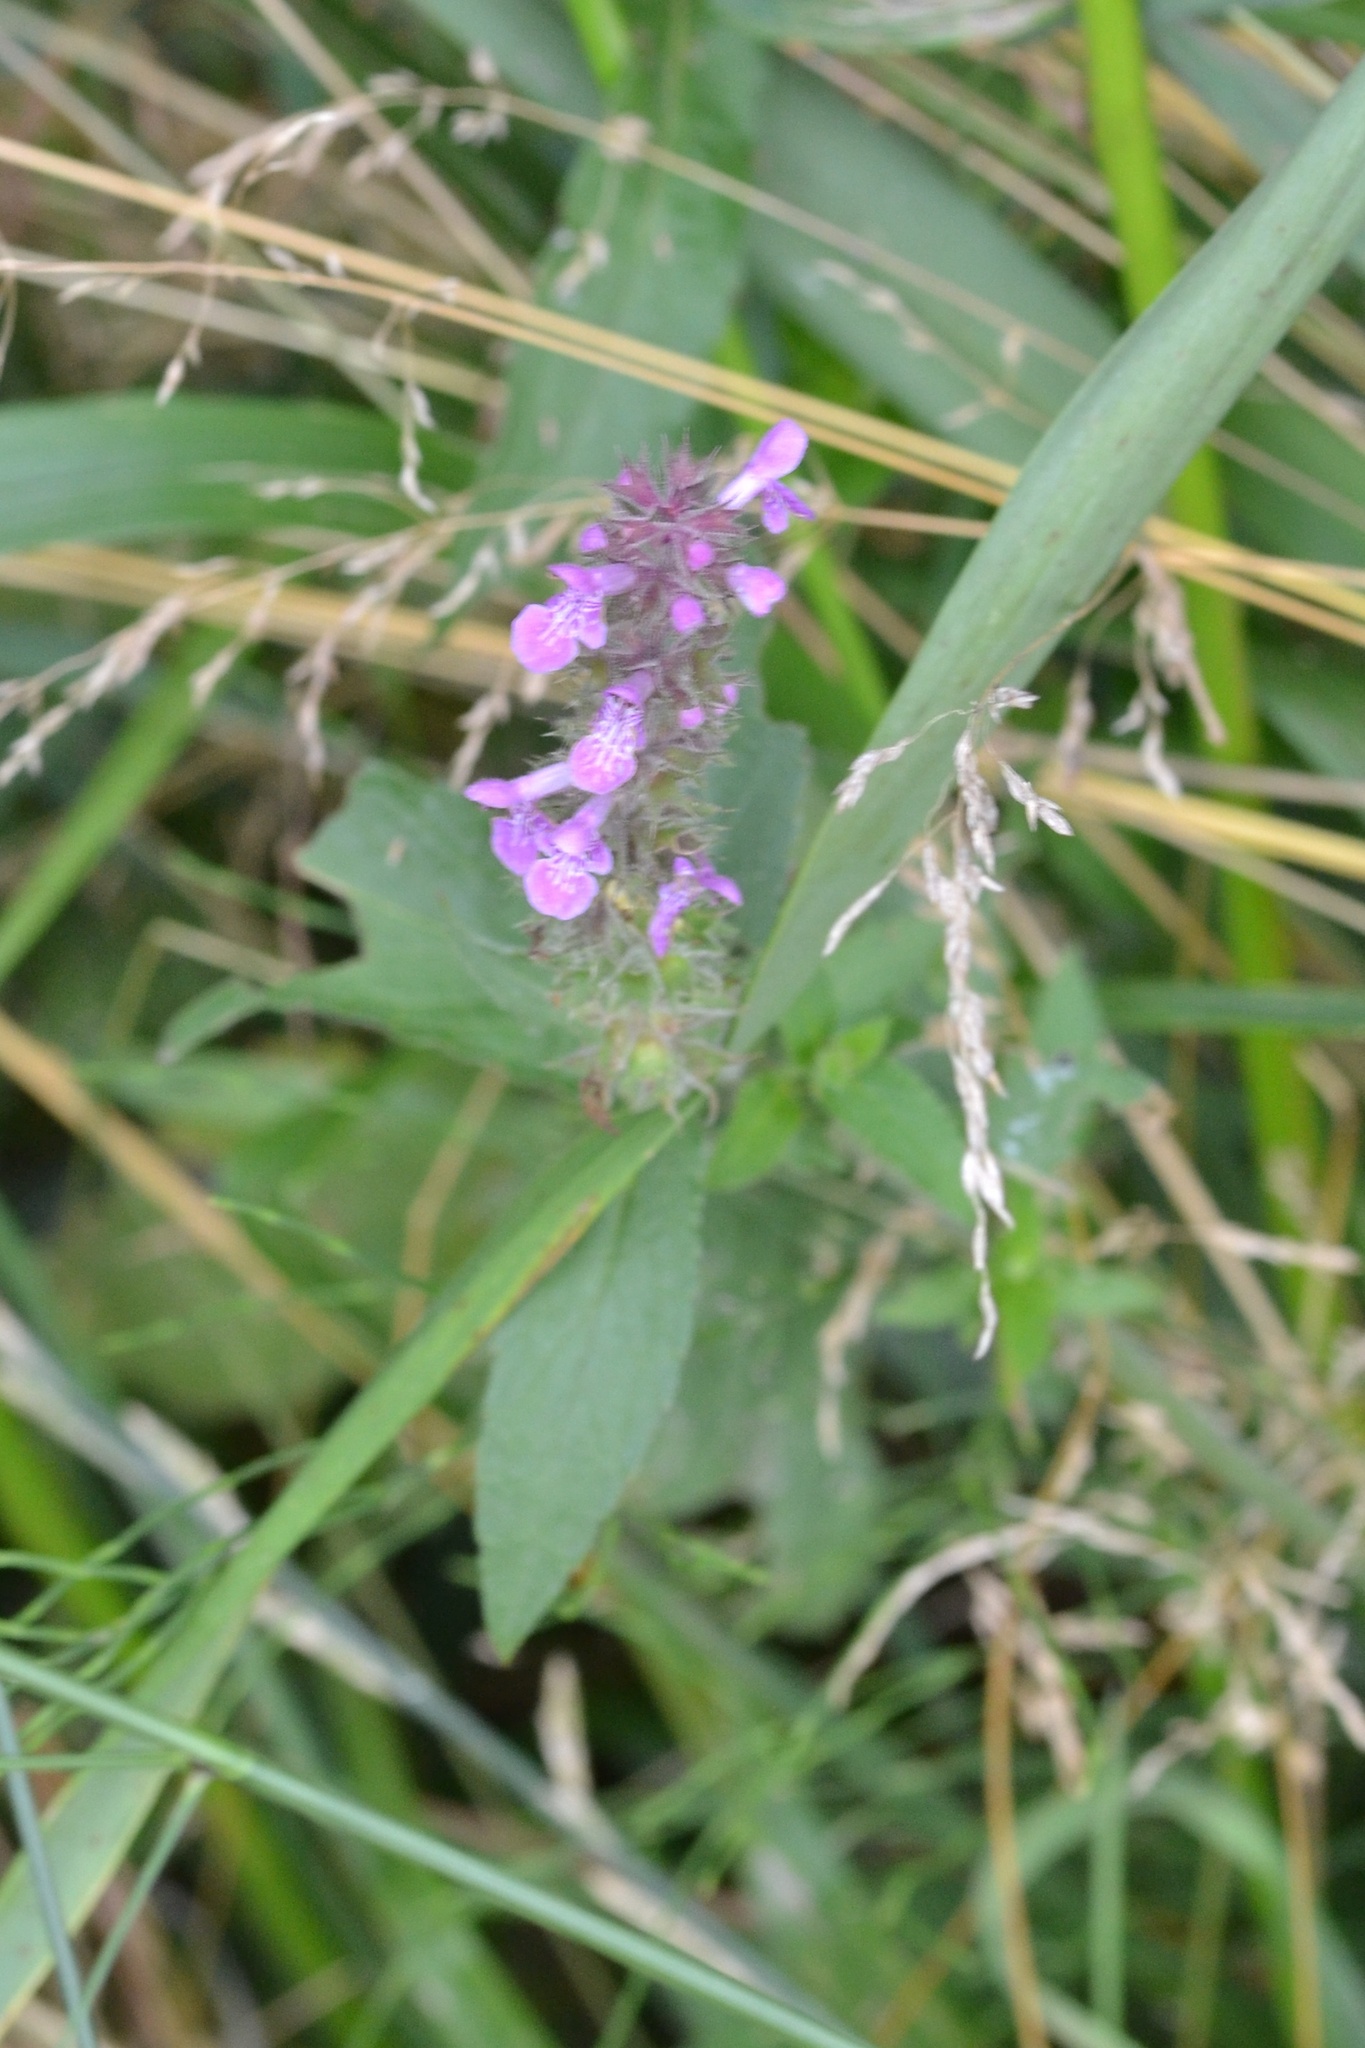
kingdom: Plantae
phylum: Tracheophyta
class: Magnoliopsida
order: Lamiales
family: Lamiaceae
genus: Stachys
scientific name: Stachys palustris
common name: Marsh woundwort
